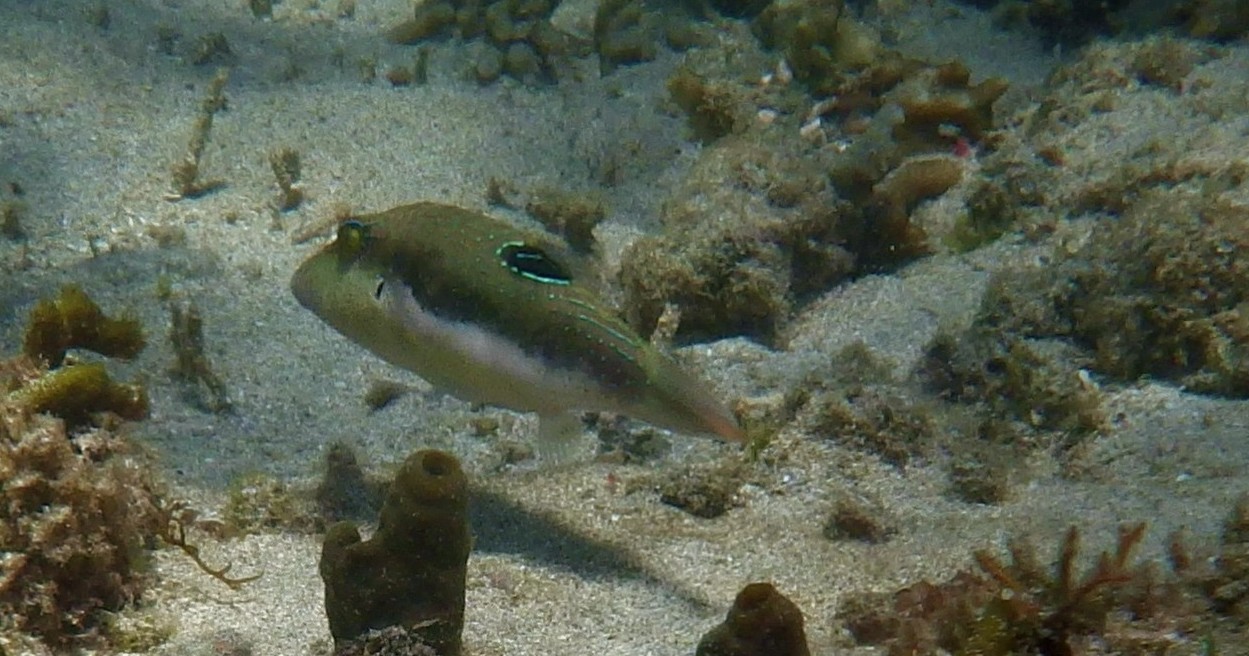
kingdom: Animalia
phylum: Chordata
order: Tetraodontiformes
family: Tetraodontidae
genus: Canthigaster
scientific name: Canthigaster bennetti
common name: Bennett's pufferfish
